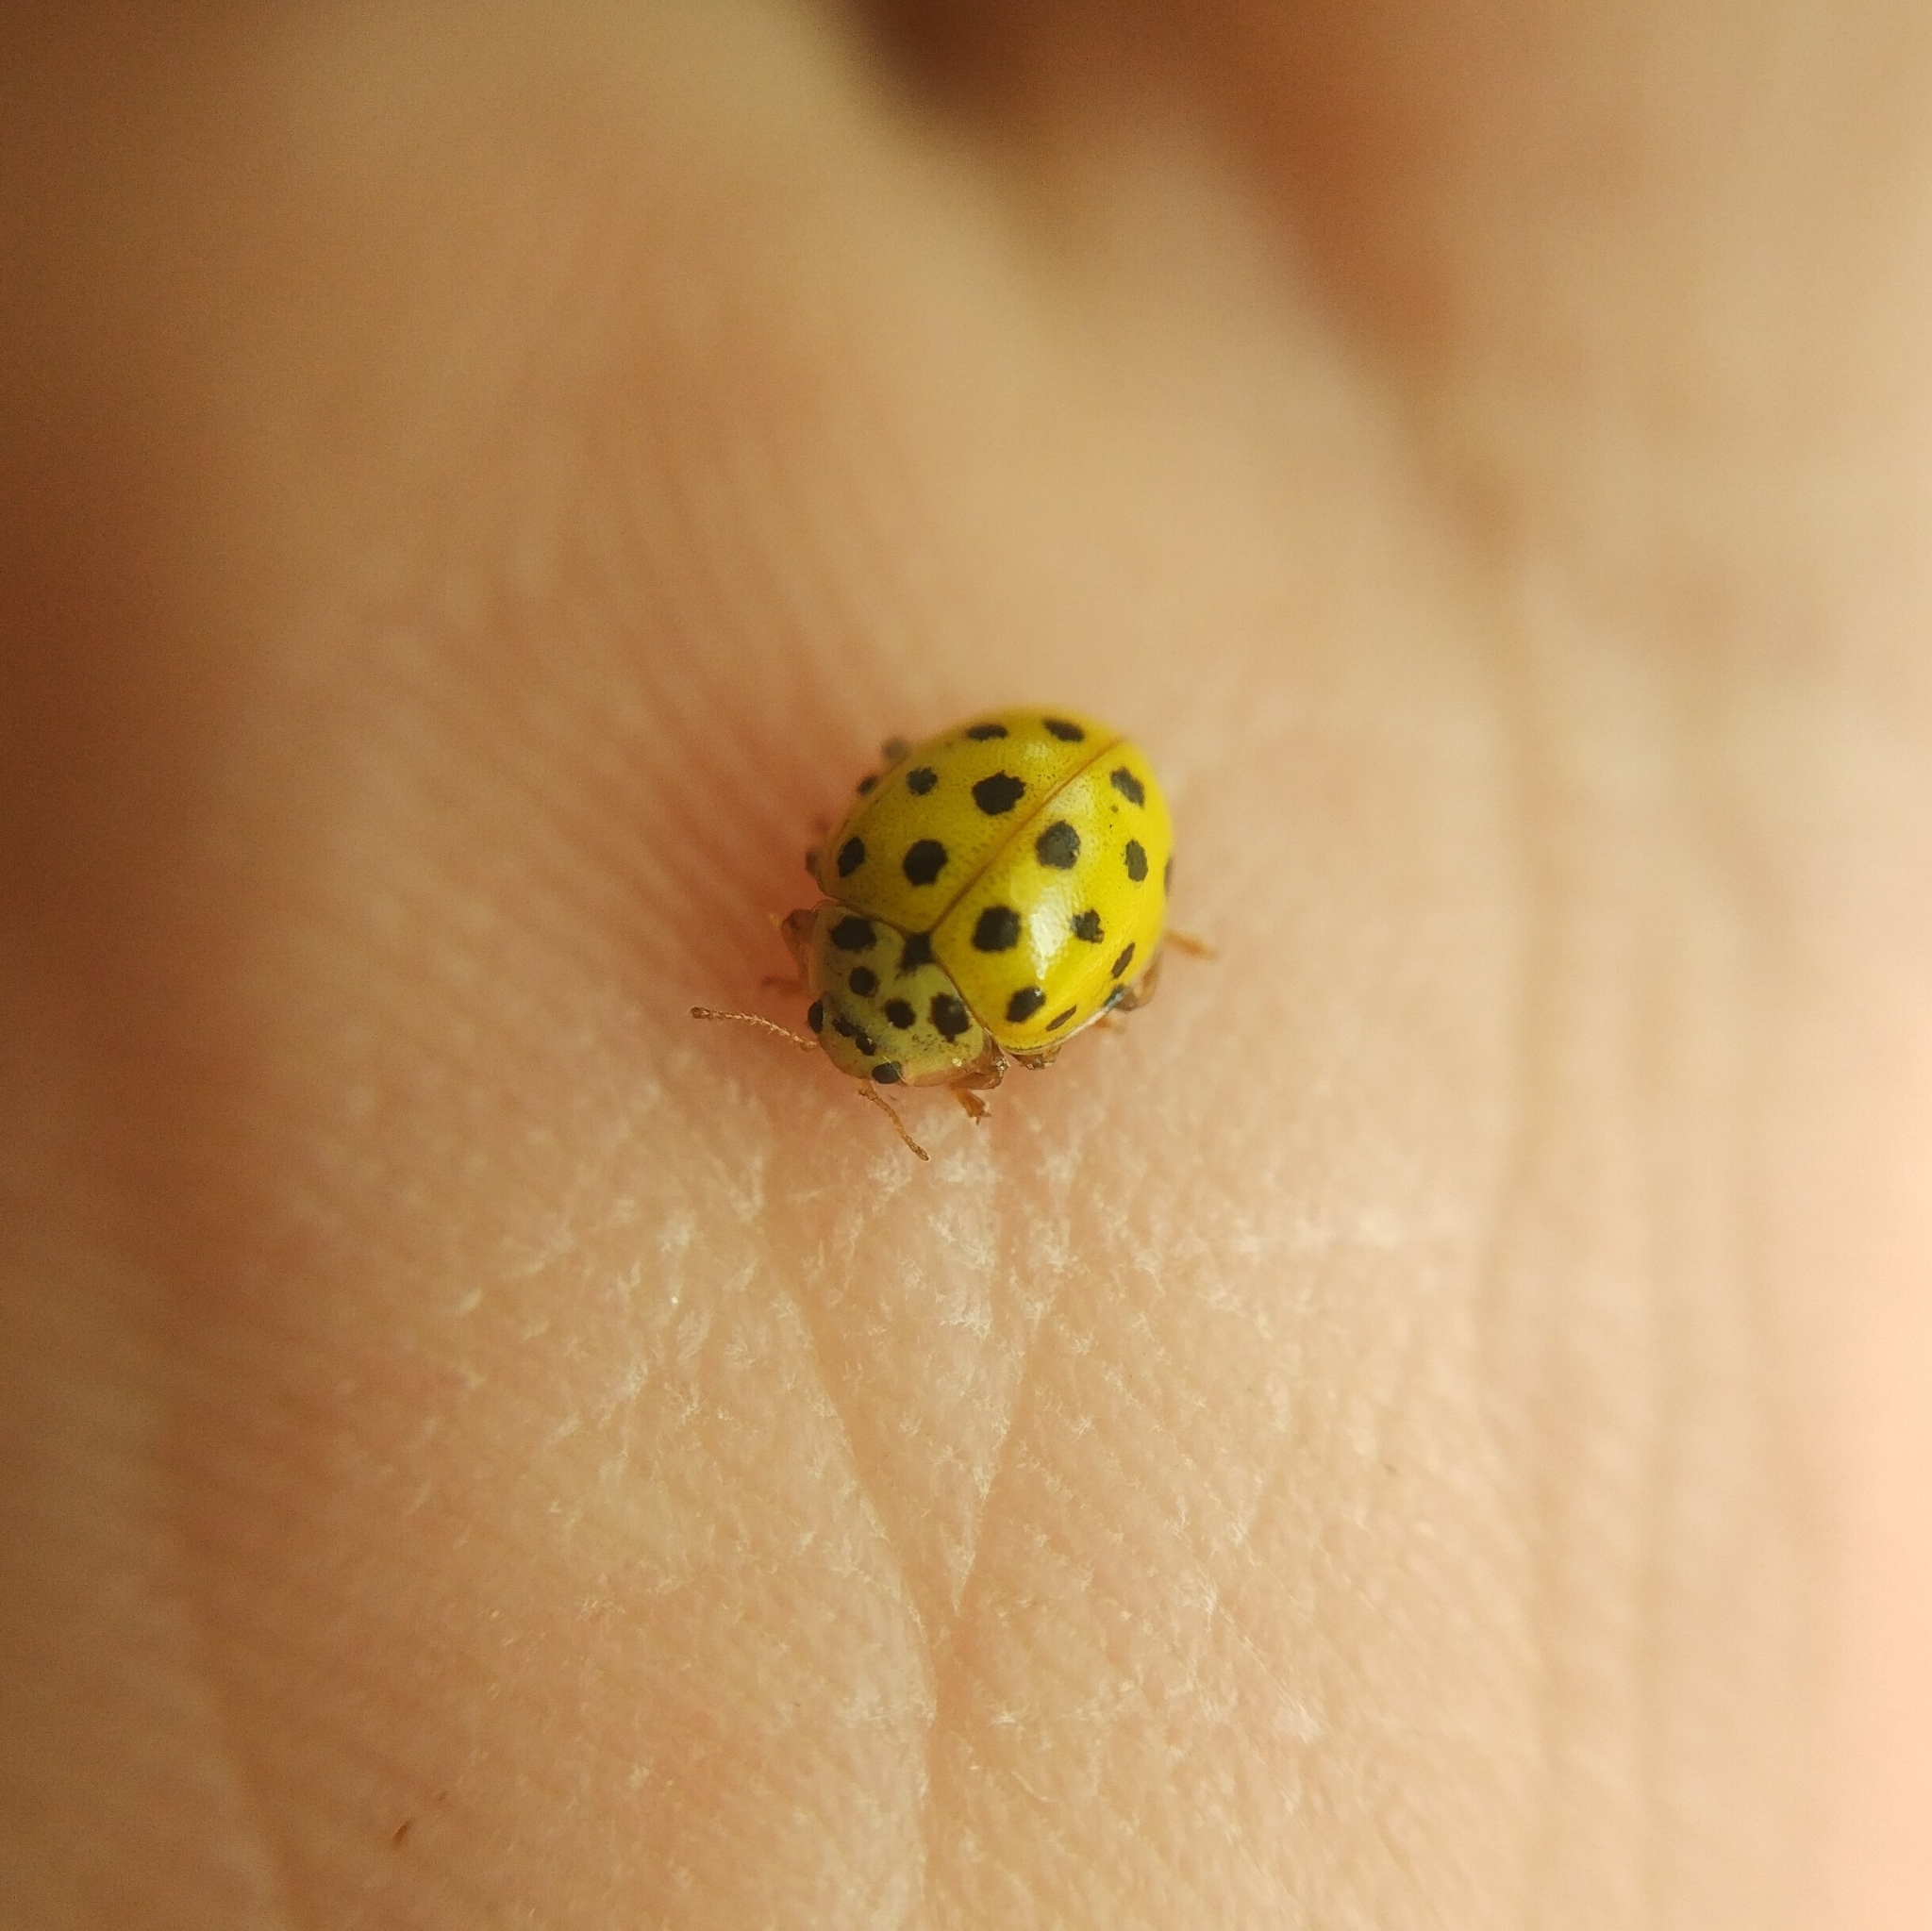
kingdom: Animalia
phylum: Arthropoda
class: Insecta
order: Coleoptera
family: Coccinellidae
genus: Psyllobora
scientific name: Psyllobora vigintiduopunctata
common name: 22-spot ladybird
